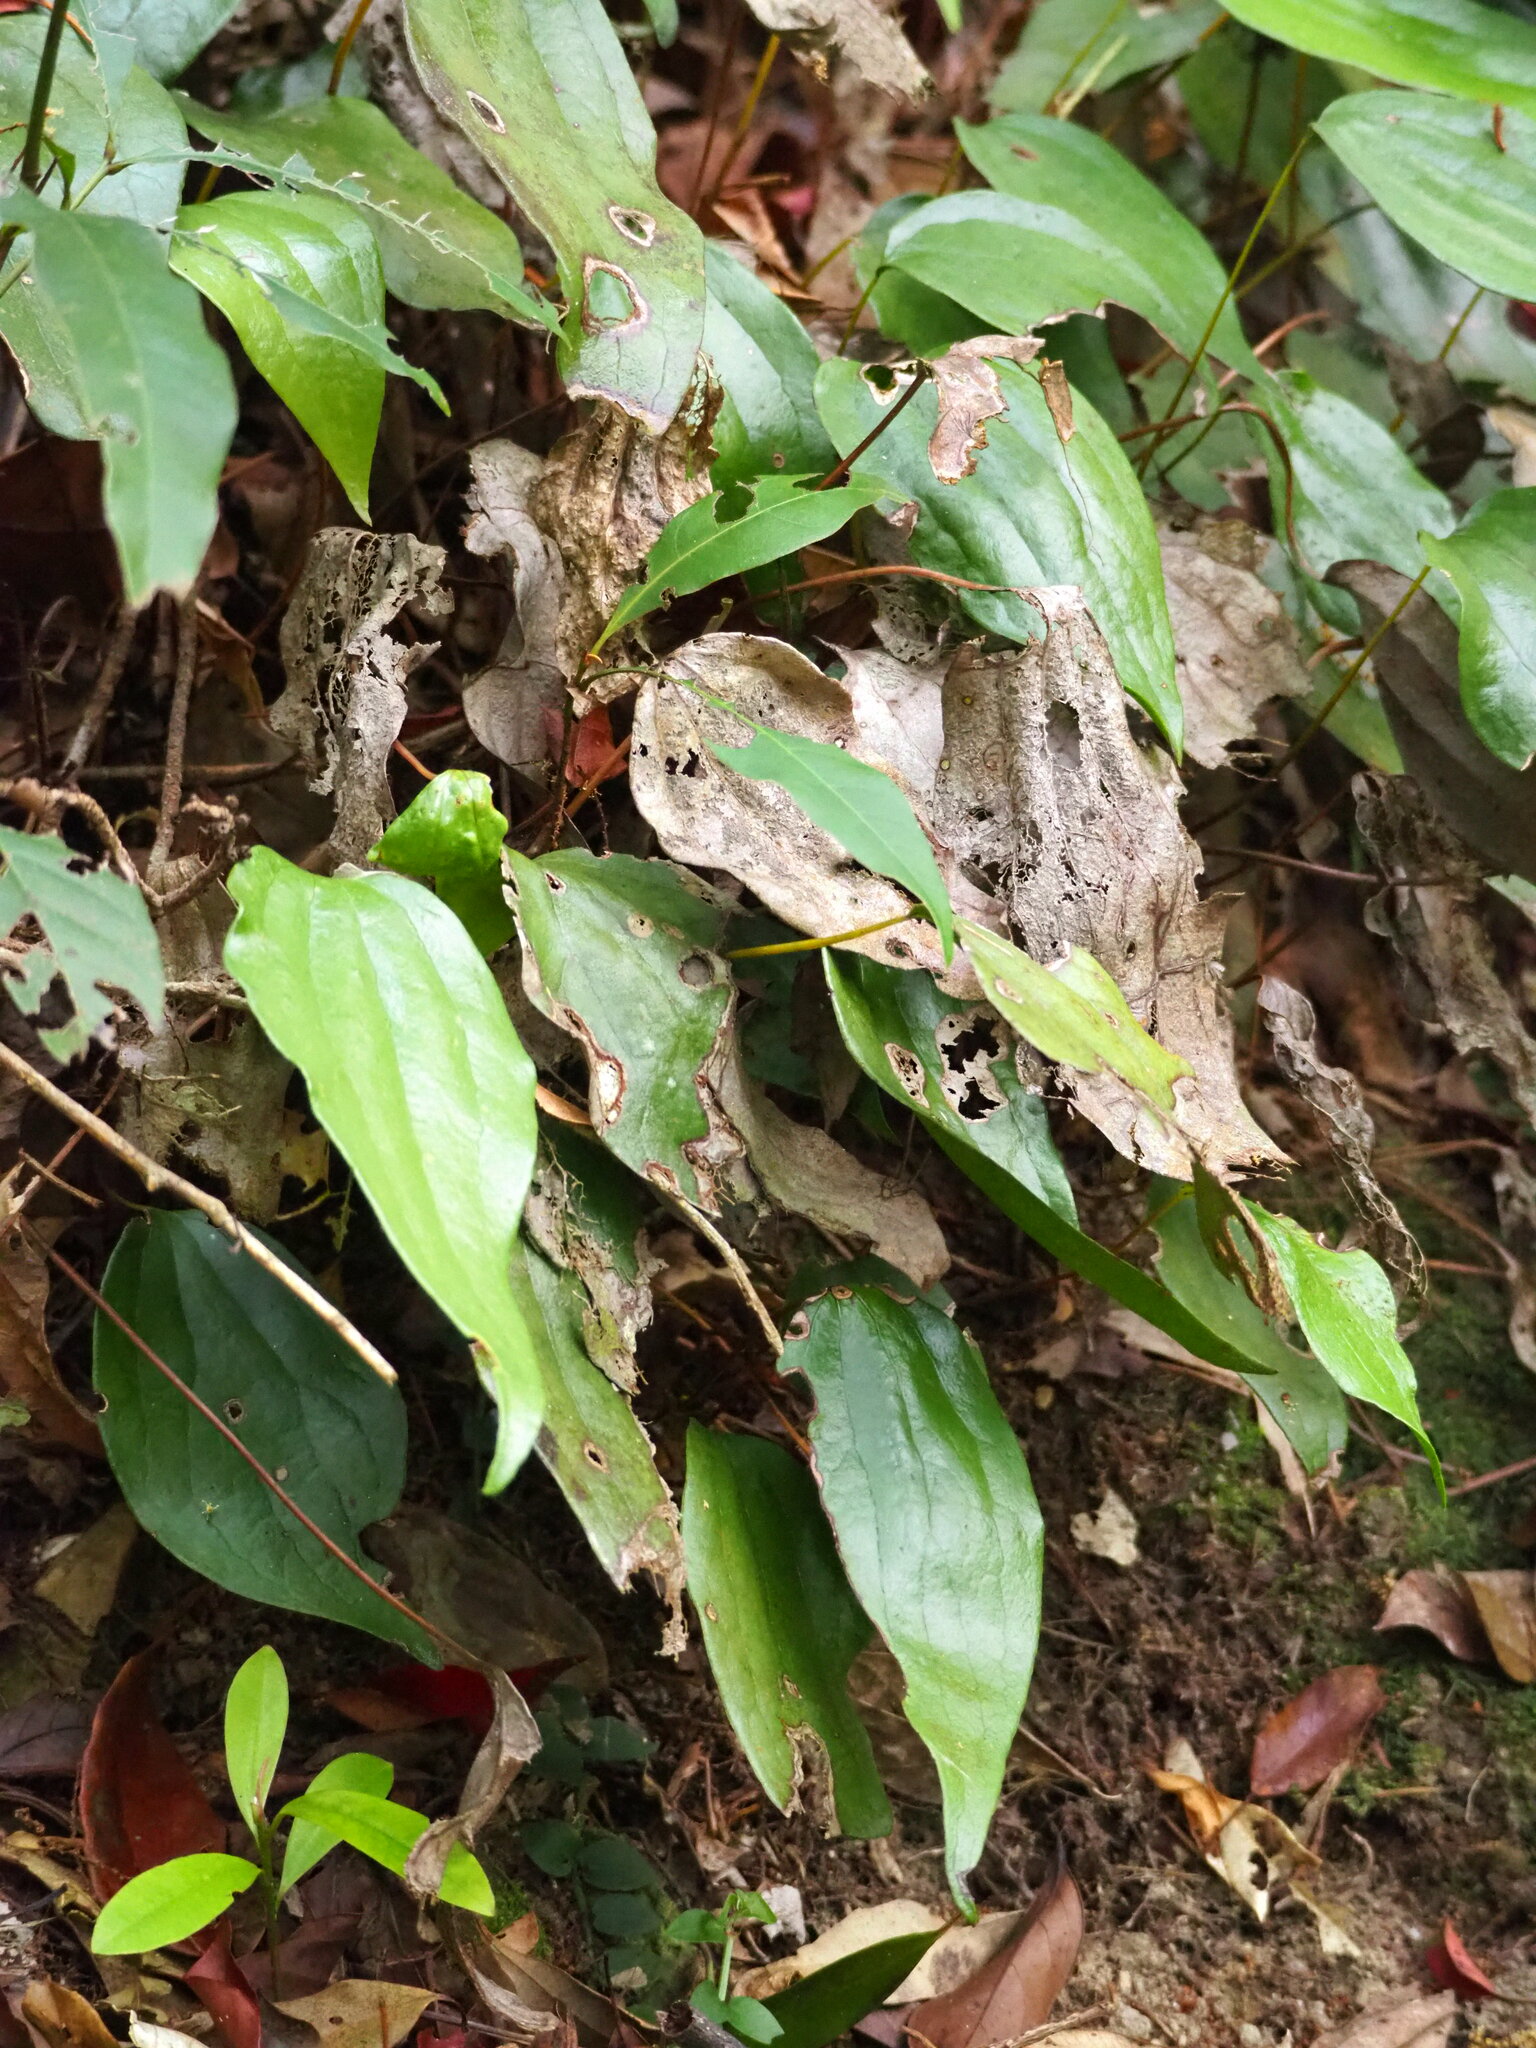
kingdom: Plantae
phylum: Tracheophyta
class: Polypodiopsida
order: Gleicheniales
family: Dipteridaceae
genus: Cheiropleuria
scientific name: Cheiropleuria integrifolia
